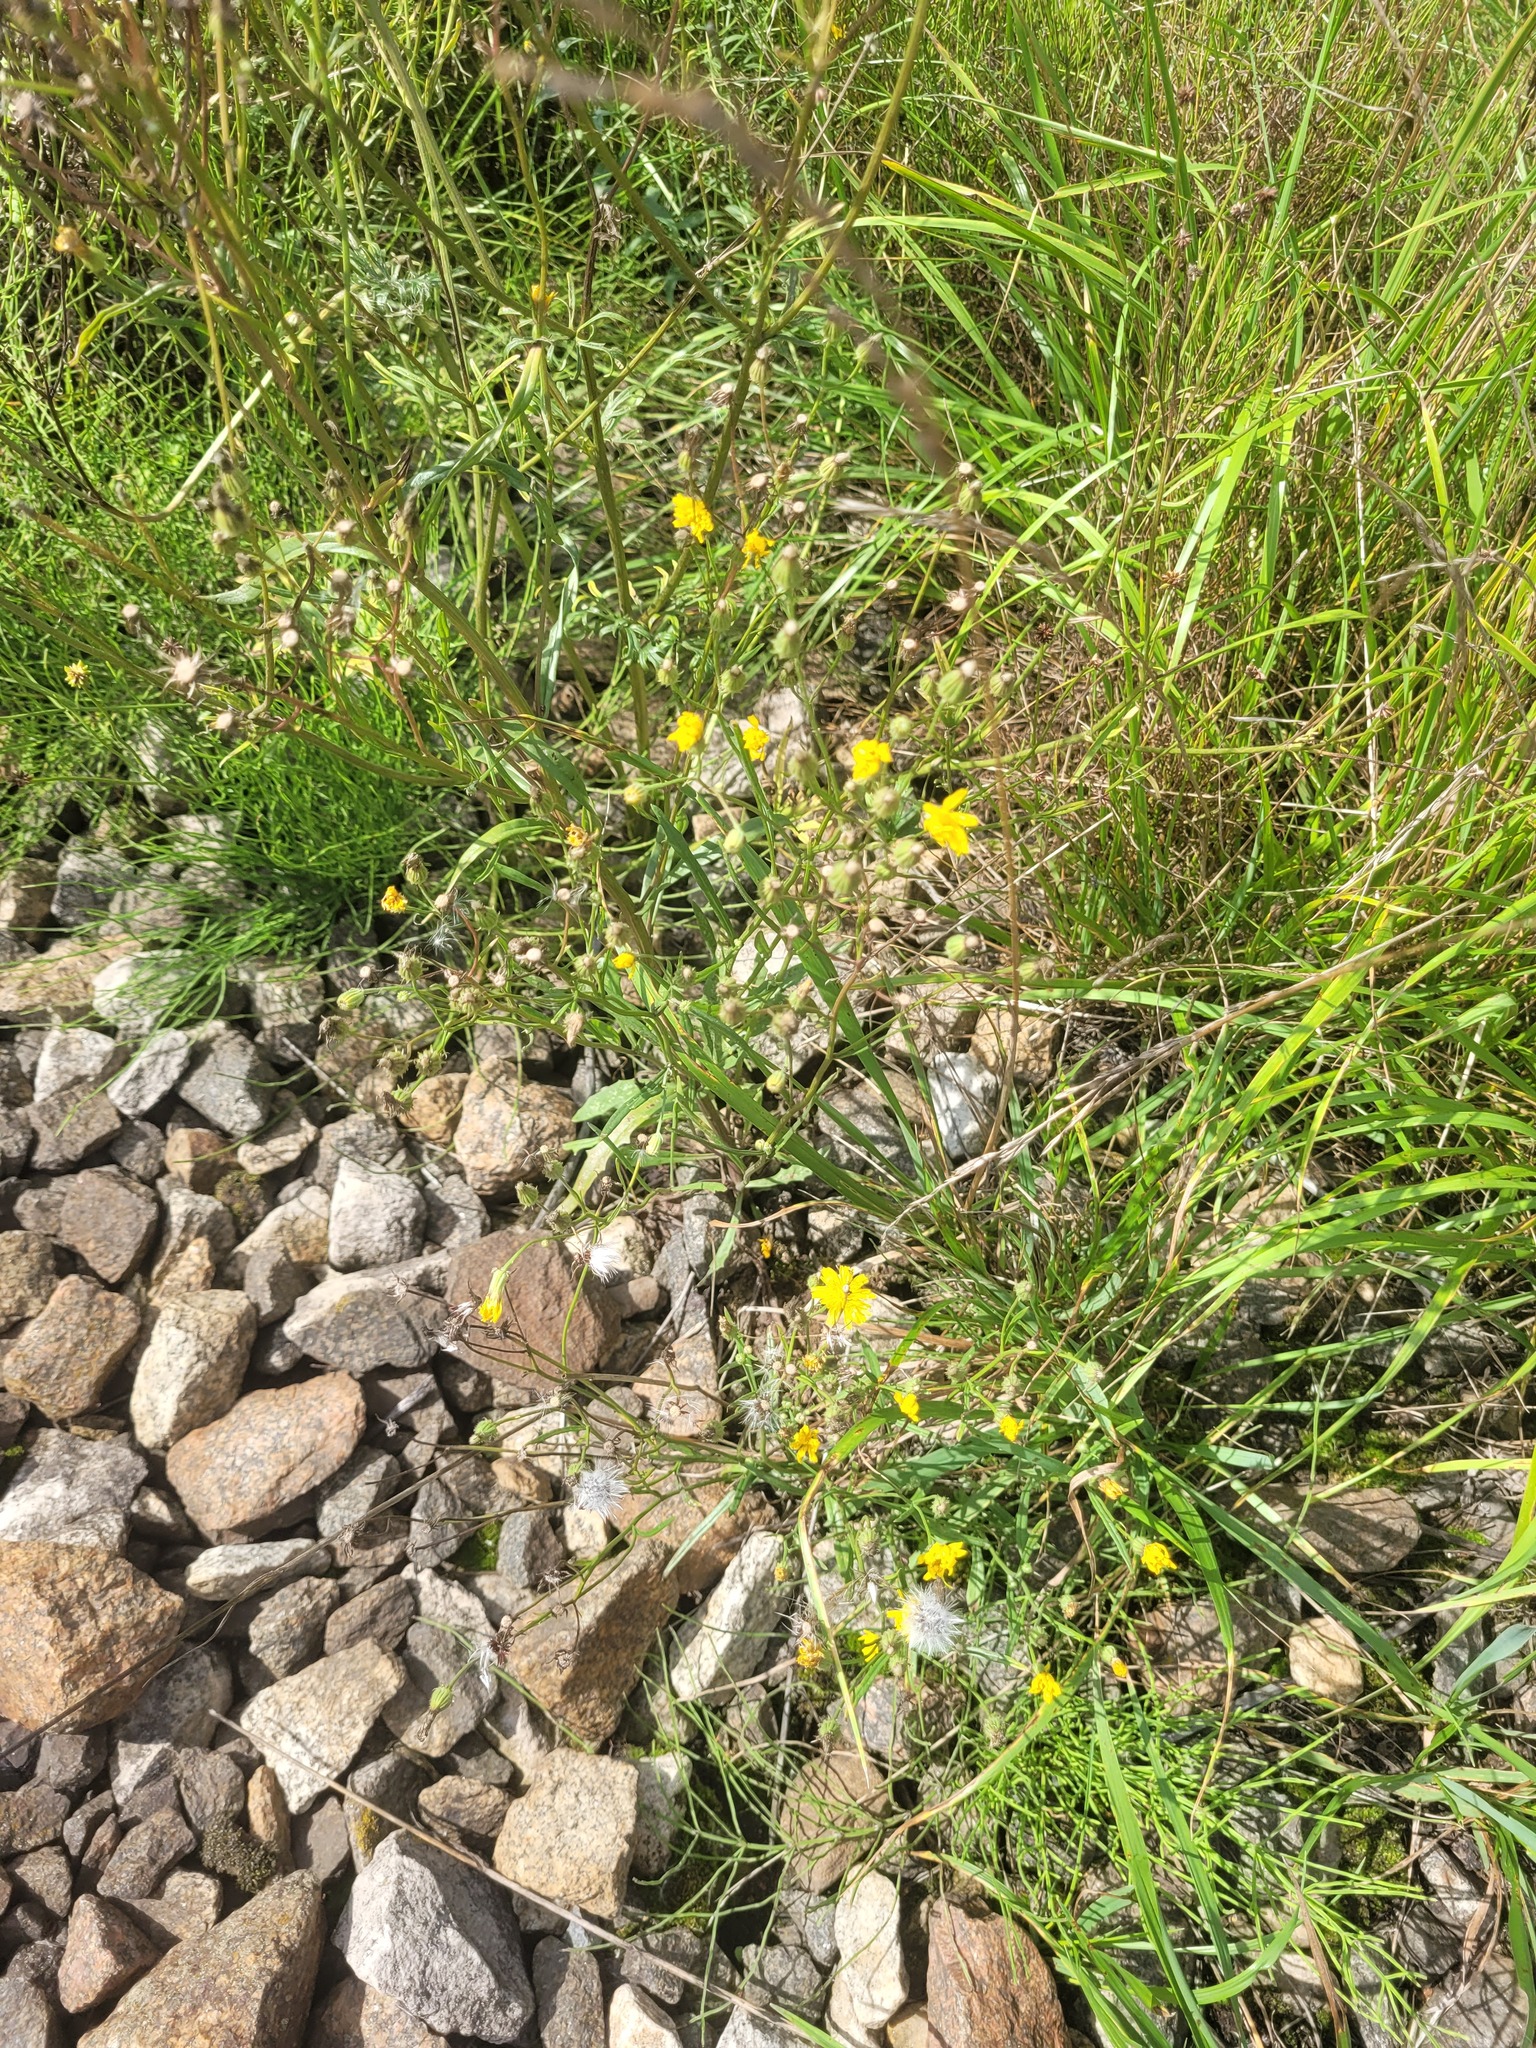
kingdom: Plantae
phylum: Tracheophyta
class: Magnoliopsida
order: Asterales
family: Asteraceae
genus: Crepis
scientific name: Crepis tectorum
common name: Narrow-leaved hawk's-beard
